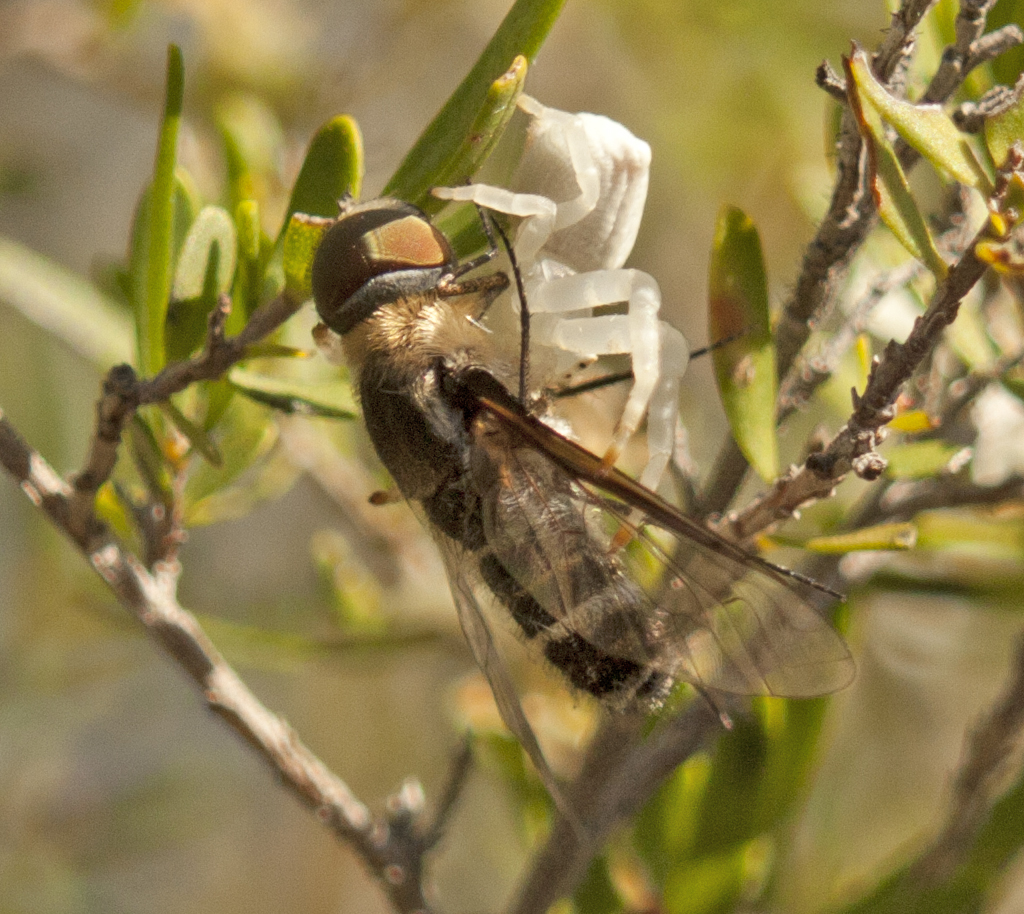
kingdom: Animalia
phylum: Arthropoda
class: Arachnida
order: Araneae
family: Thomisidae
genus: Thomisus
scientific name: Thomisus spectabilis
